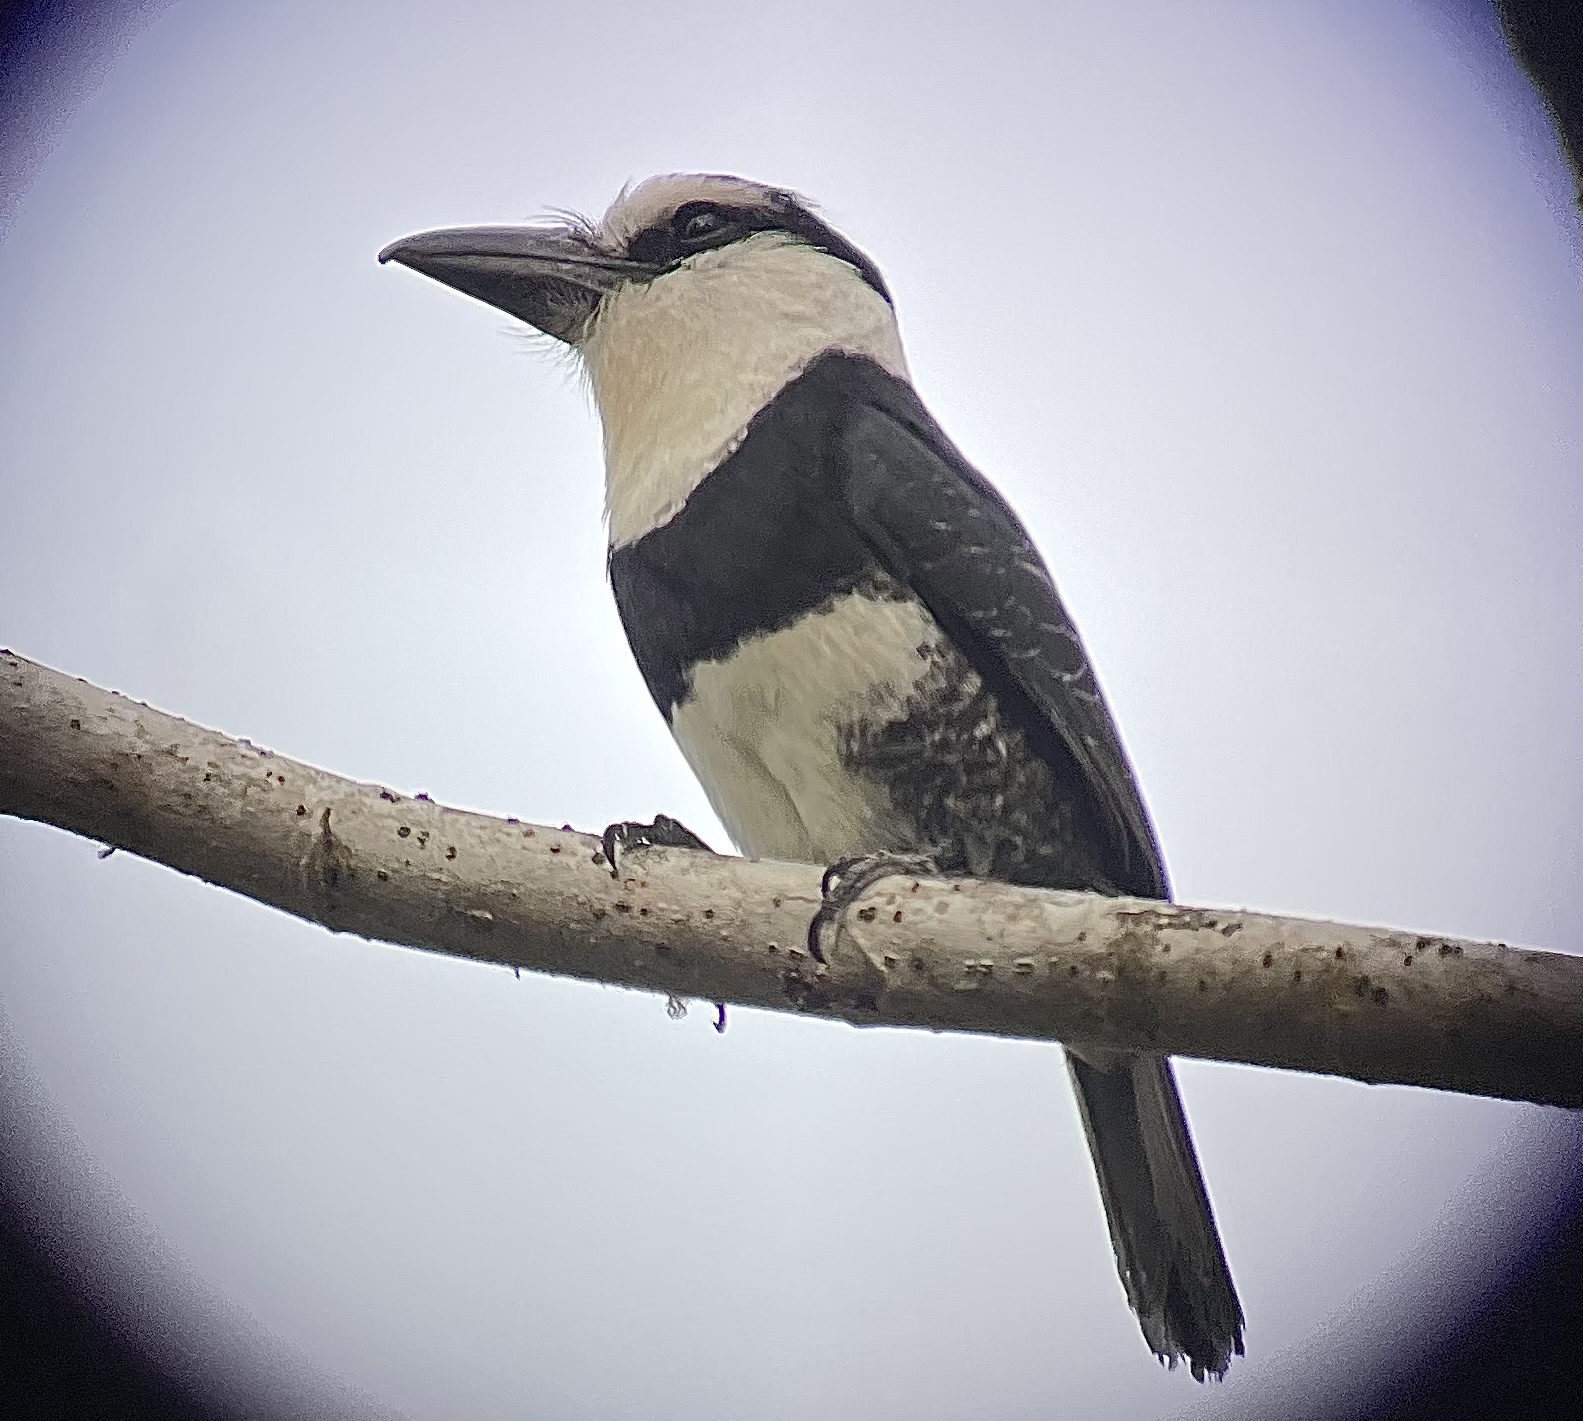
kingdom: Animalia
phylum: Chordata
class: Aves
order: Piciformes
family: Bucconidae
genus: Notharchus
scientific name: Notharchus hyperrhynchus
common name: White-necked puffbird
